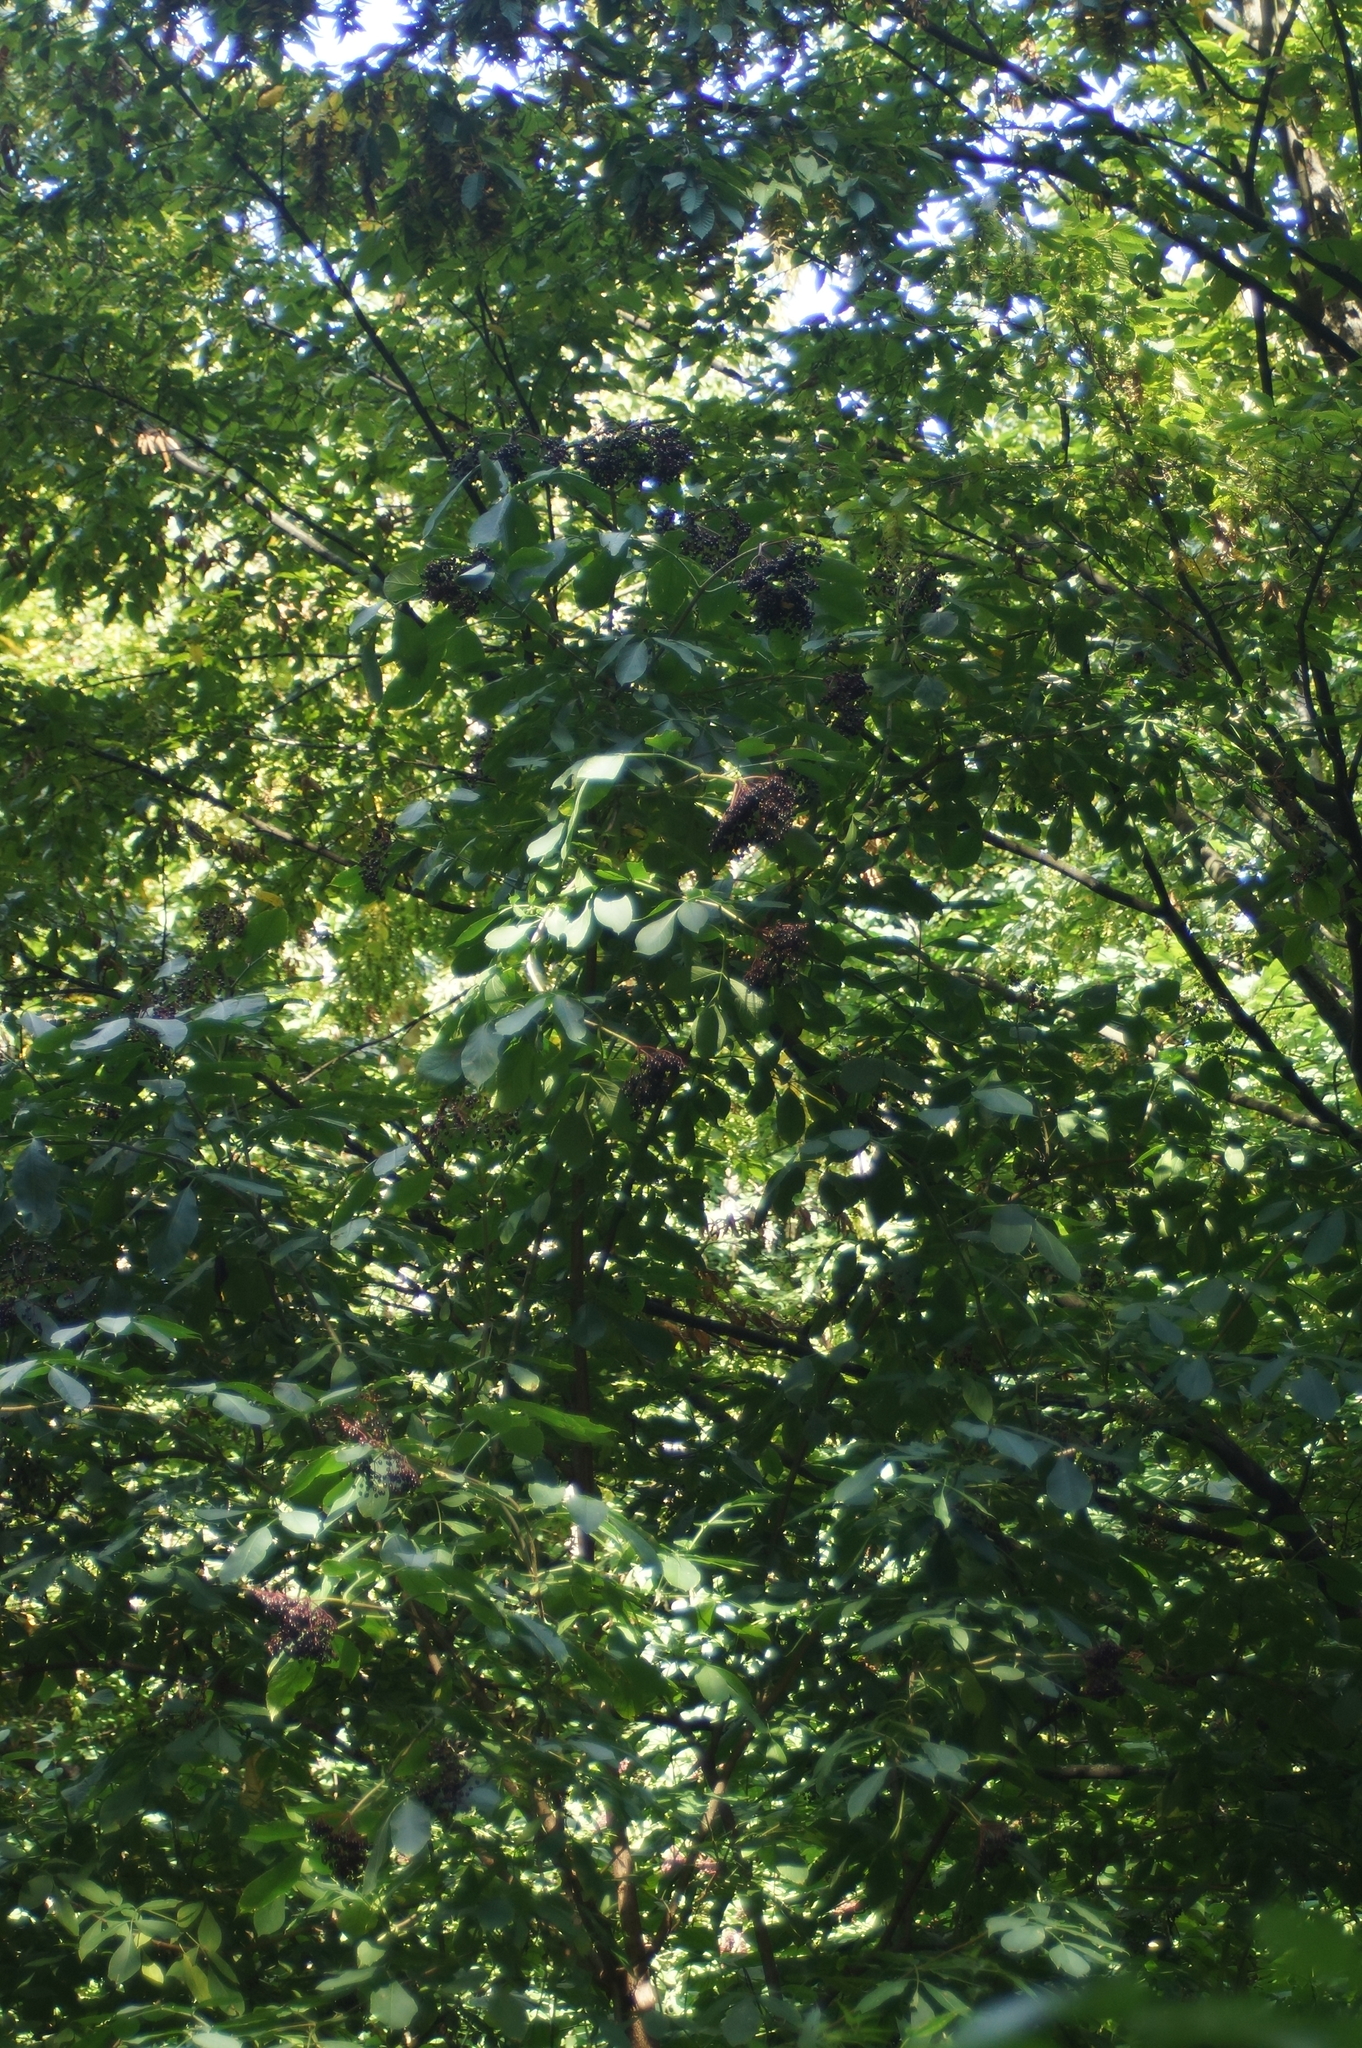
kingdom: Plantae
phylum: Tracheophyta
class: Magnoliopsida
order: Dipsacales
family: Viburnaceae
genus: Sambucus
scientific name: Sambucus nigra
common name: Elder
